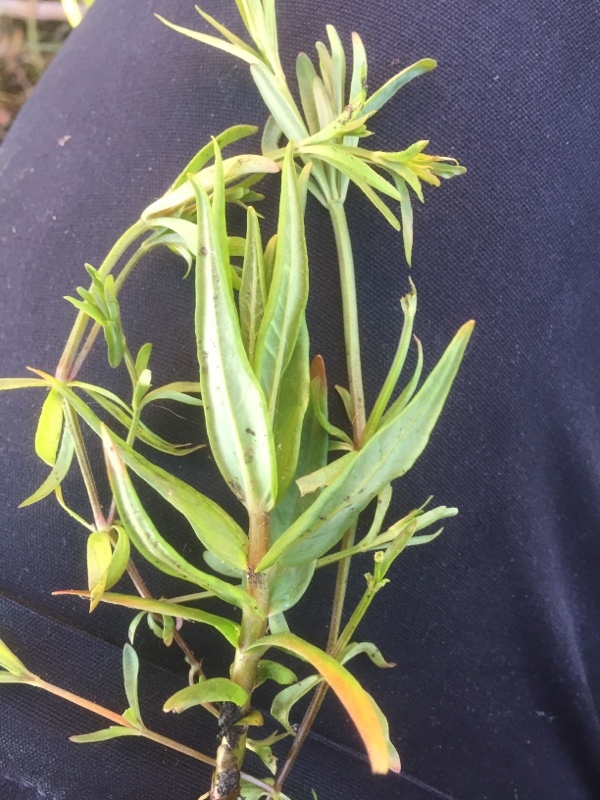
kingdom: Plantae
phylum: Tracheophyta
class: Magnoliopsida
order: Ericales
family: Primulaceae
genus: Lysimachia
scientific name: Lysimachia thyrsiflora
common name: Tufted loosestrife
